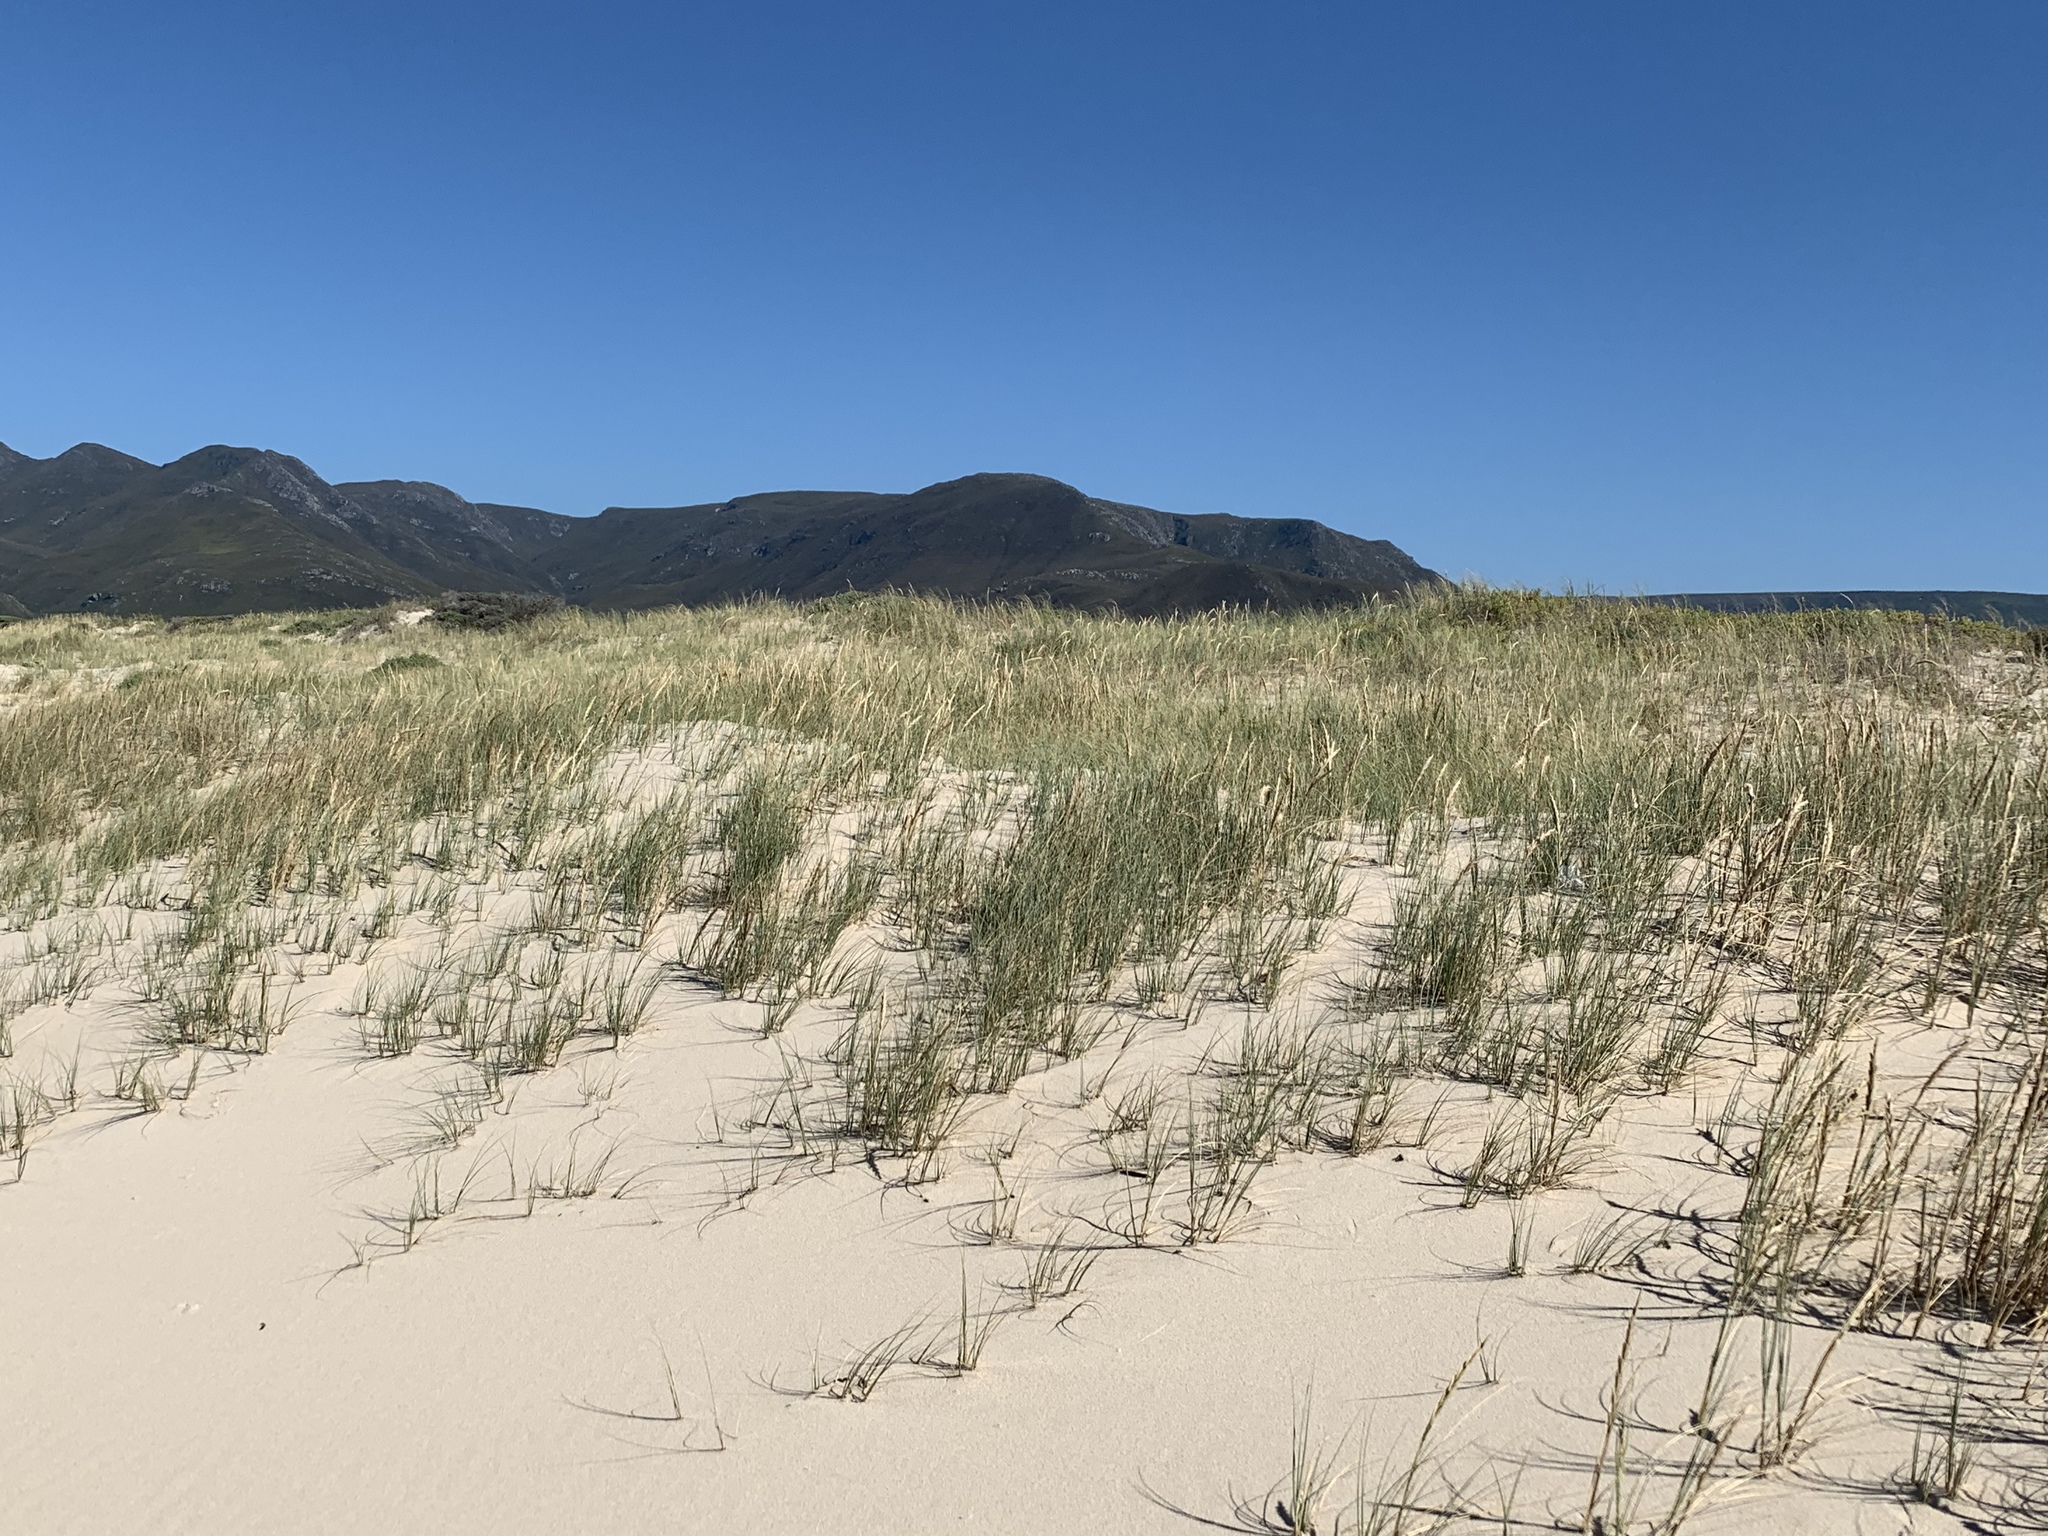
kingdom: Plantae
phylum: Tracheophyta
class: Liliopsida
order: Poales
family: Poaceae
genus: Thinopyrum
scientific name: Thinopyrum distichum
